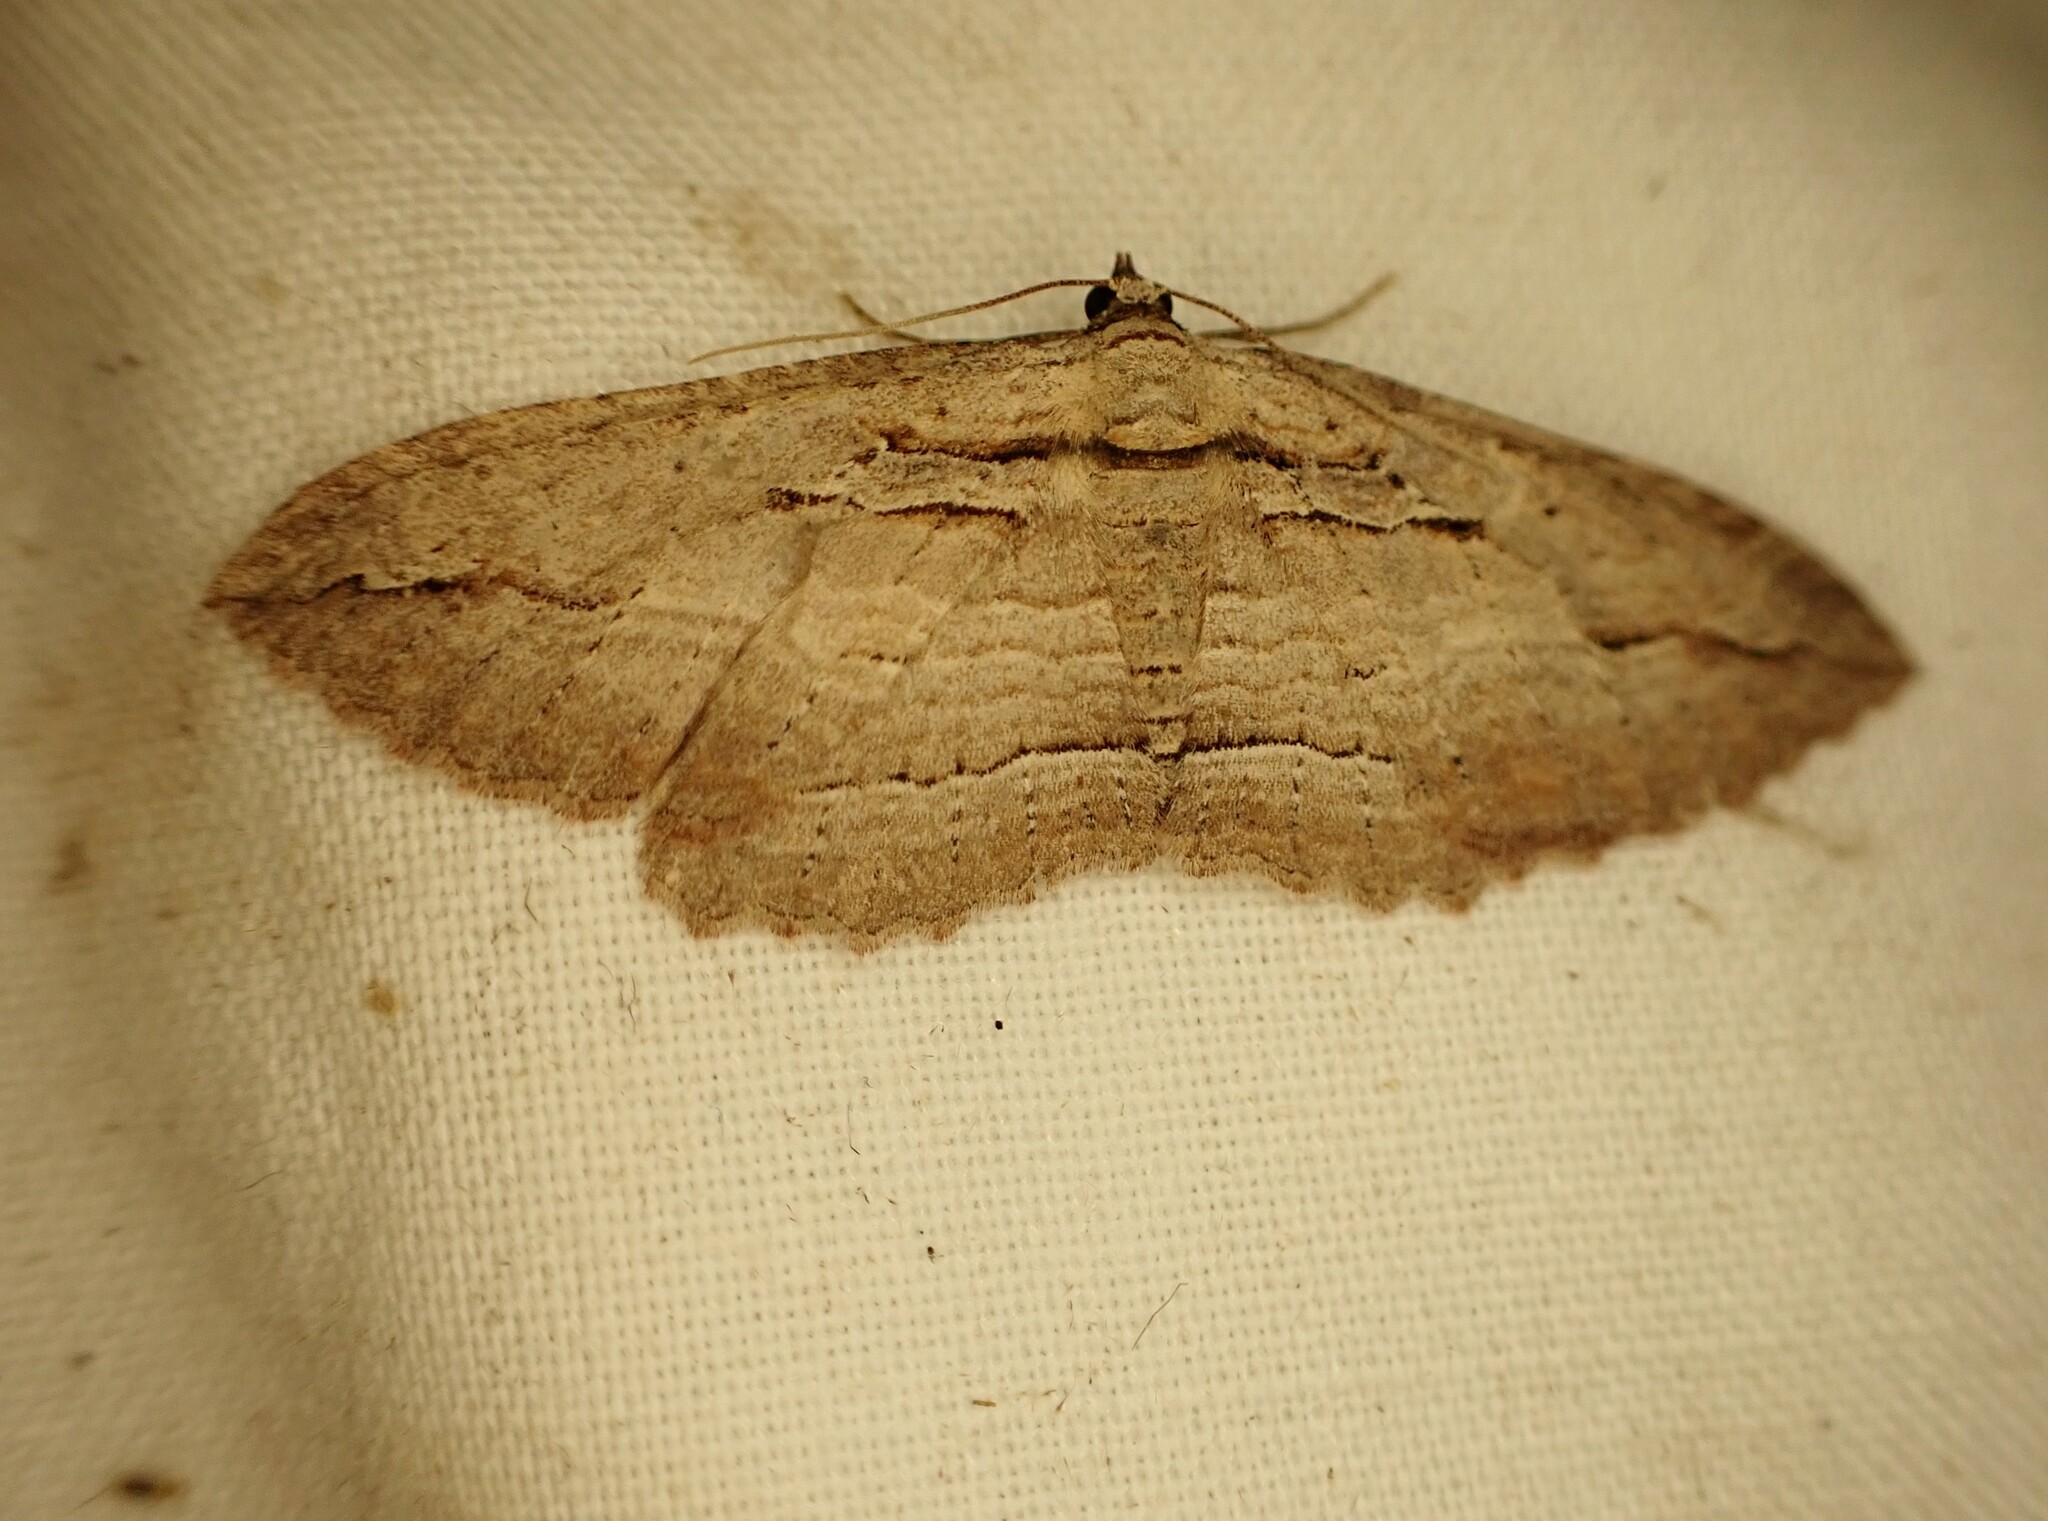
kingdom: Animalia
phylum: Arthropoda
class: Insecta
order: Lepidoptera
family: Geometridae
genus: Austrocidaria
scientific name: Austrocidaria gobiata
